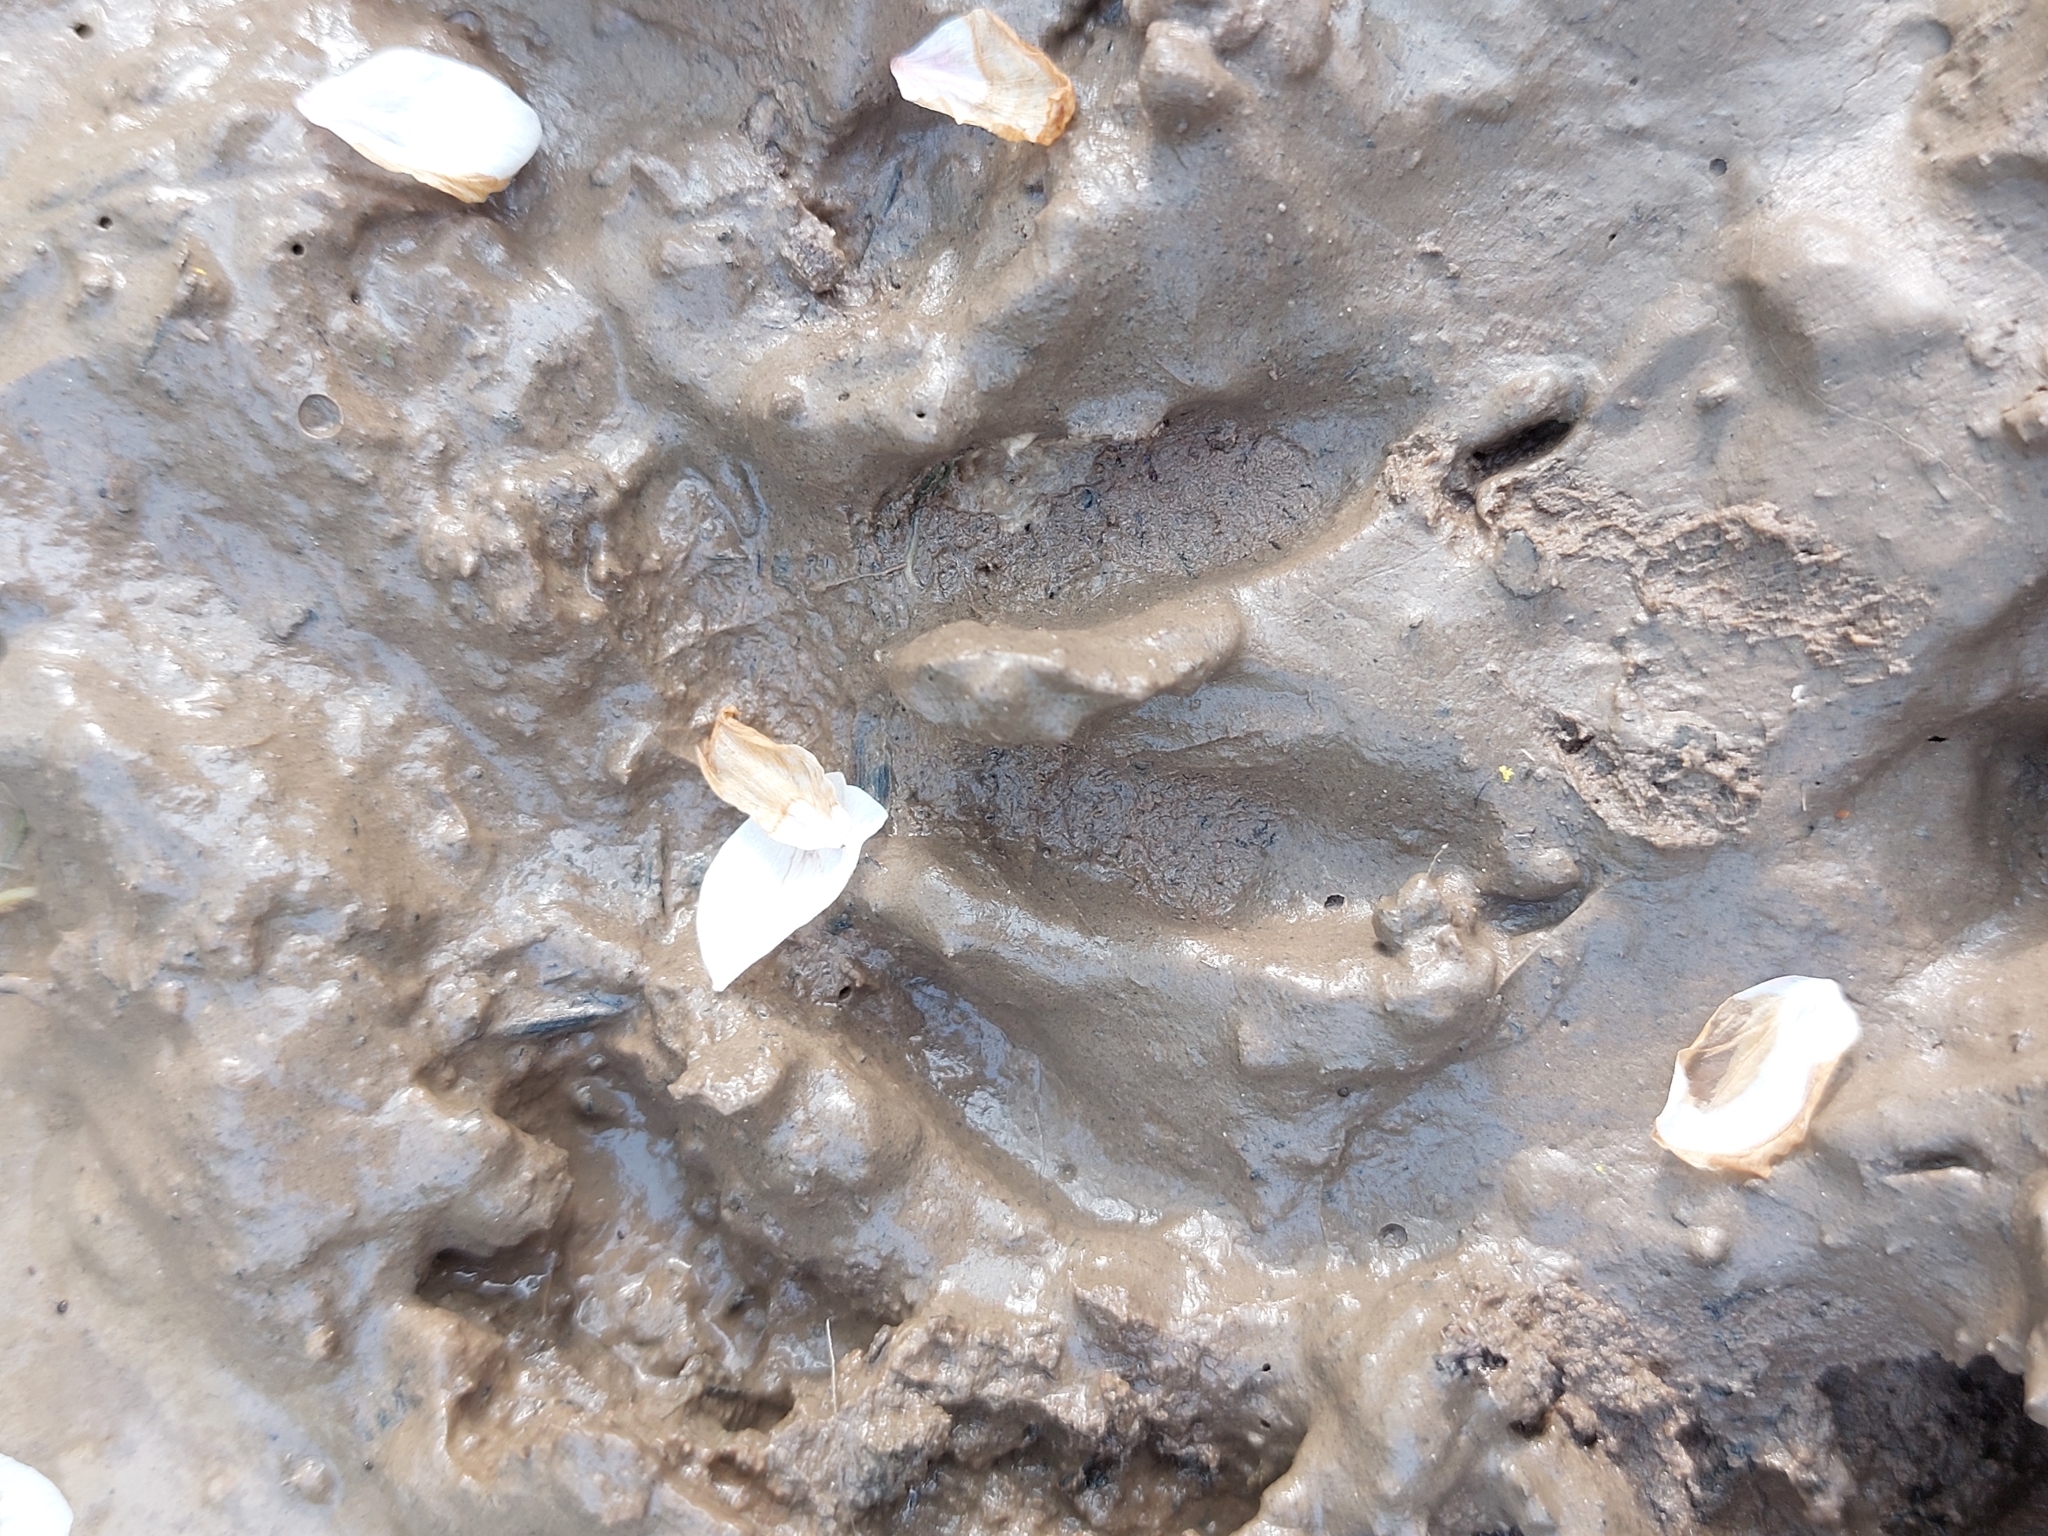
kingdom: Animalia
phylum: Chordata
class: Mammalia
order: Carnivora
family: Procyonidae
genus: Procyon
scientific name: Procyon lotor
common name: Raccoon
